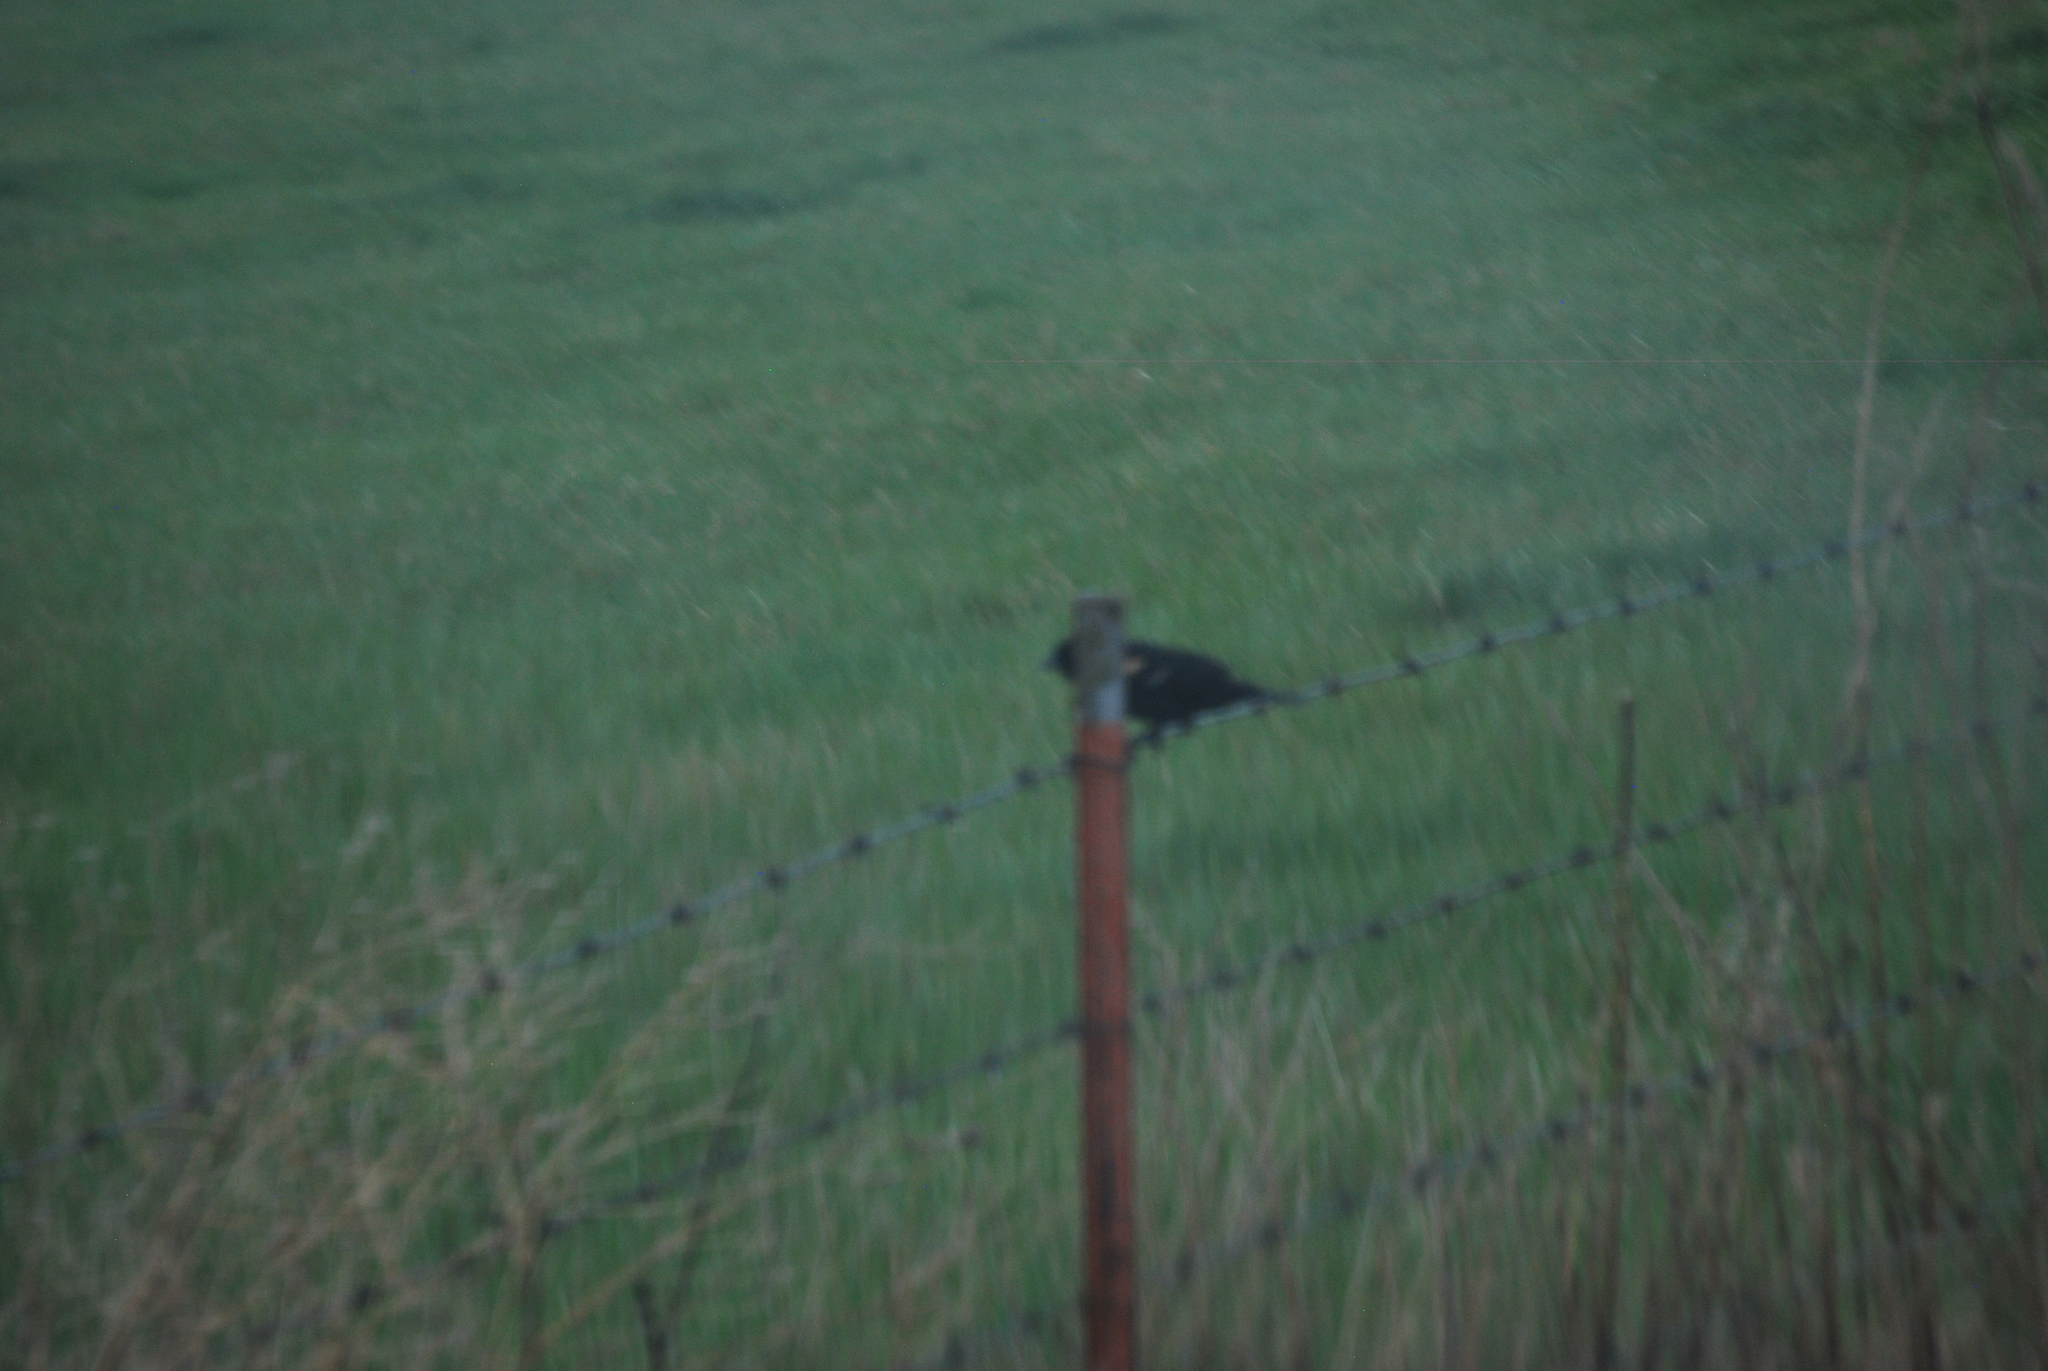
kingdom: Animalia
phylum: Chordata
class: Aves
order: Passeriformes
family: Icteridae
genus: Agelaius
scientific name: Agelaius phoeniceus
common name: Red-winged blackbird
